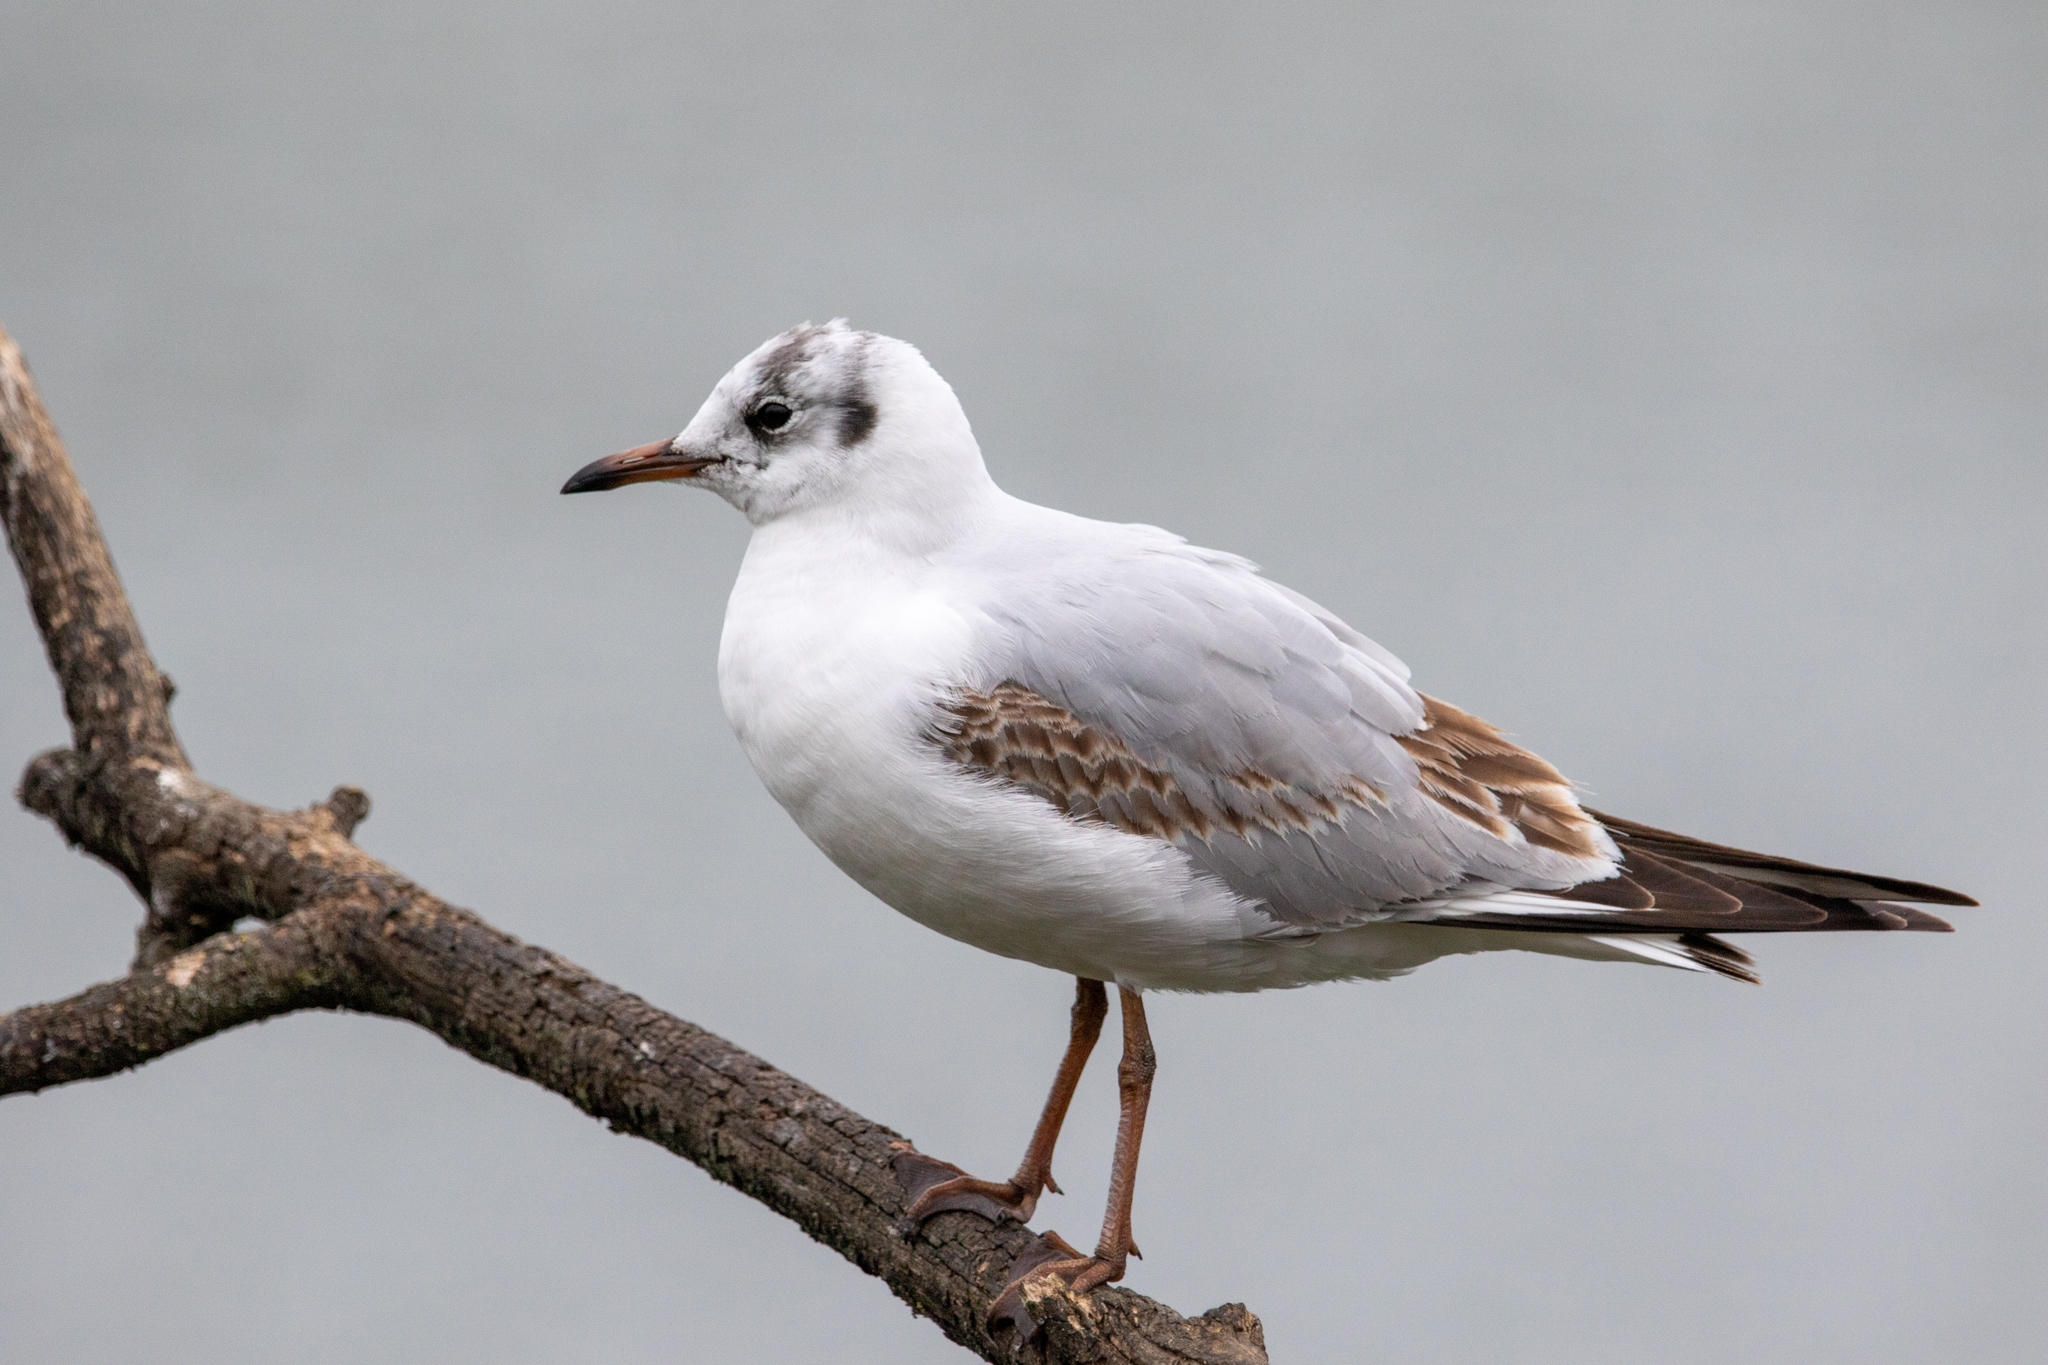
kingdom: Animalia
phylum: Chordata
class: Aves
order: Charadriiformes
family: Laridae
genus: Chroicocephalus
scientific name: Chroicocephalus ridibundus
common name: Black-headed gull
